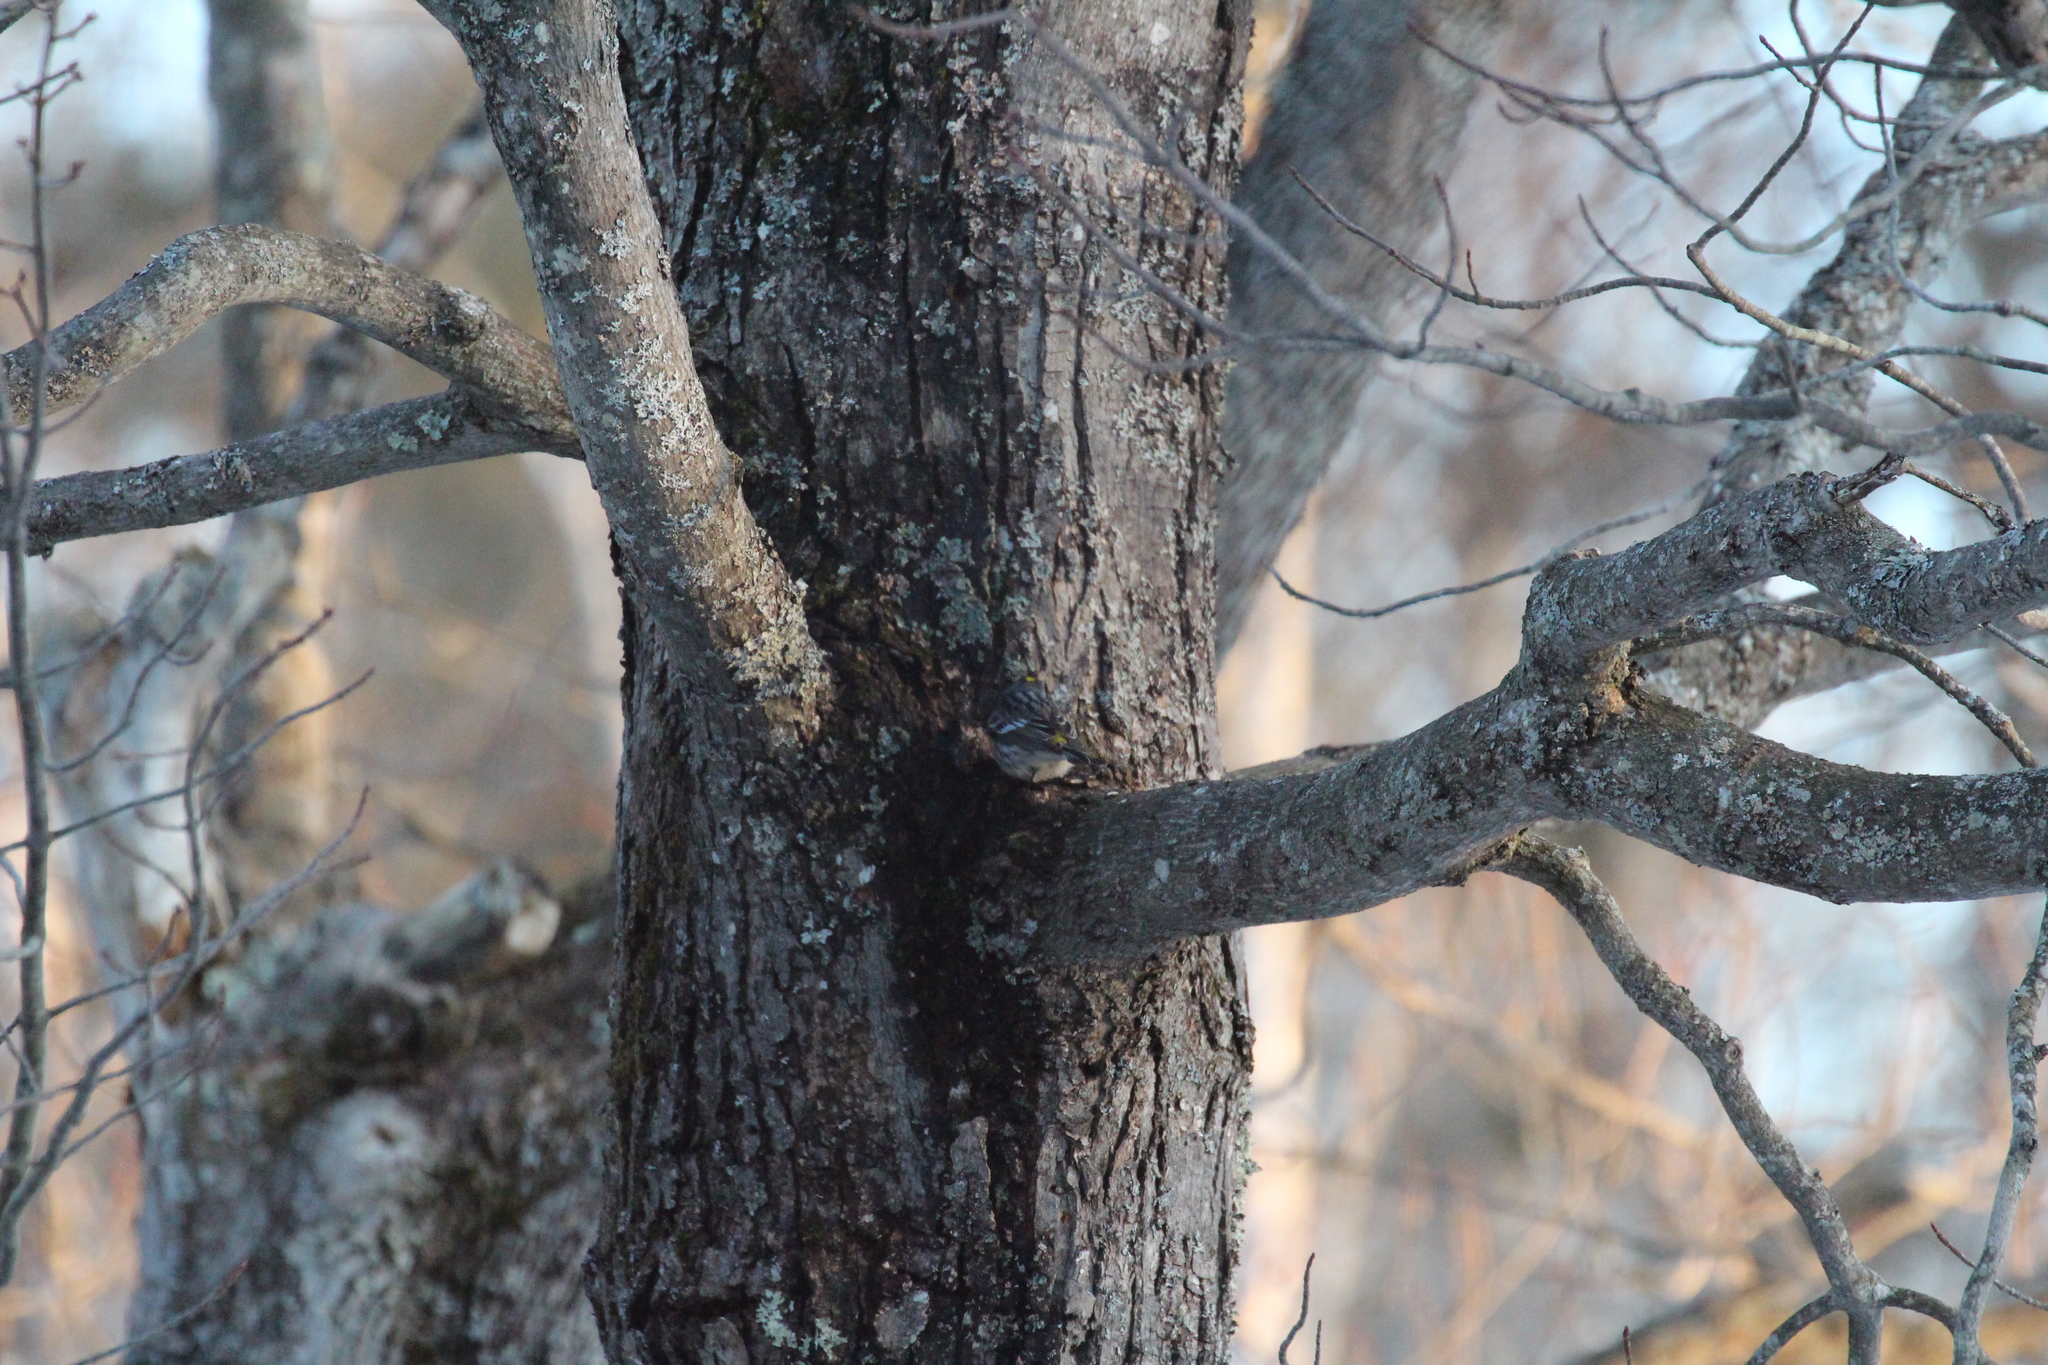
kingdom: Animalia
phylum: Chordata
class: Aves
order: Passeriformes
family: Parulidae
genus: Setophaga
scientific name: Setophaga coronata
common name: Myrtle warbler
